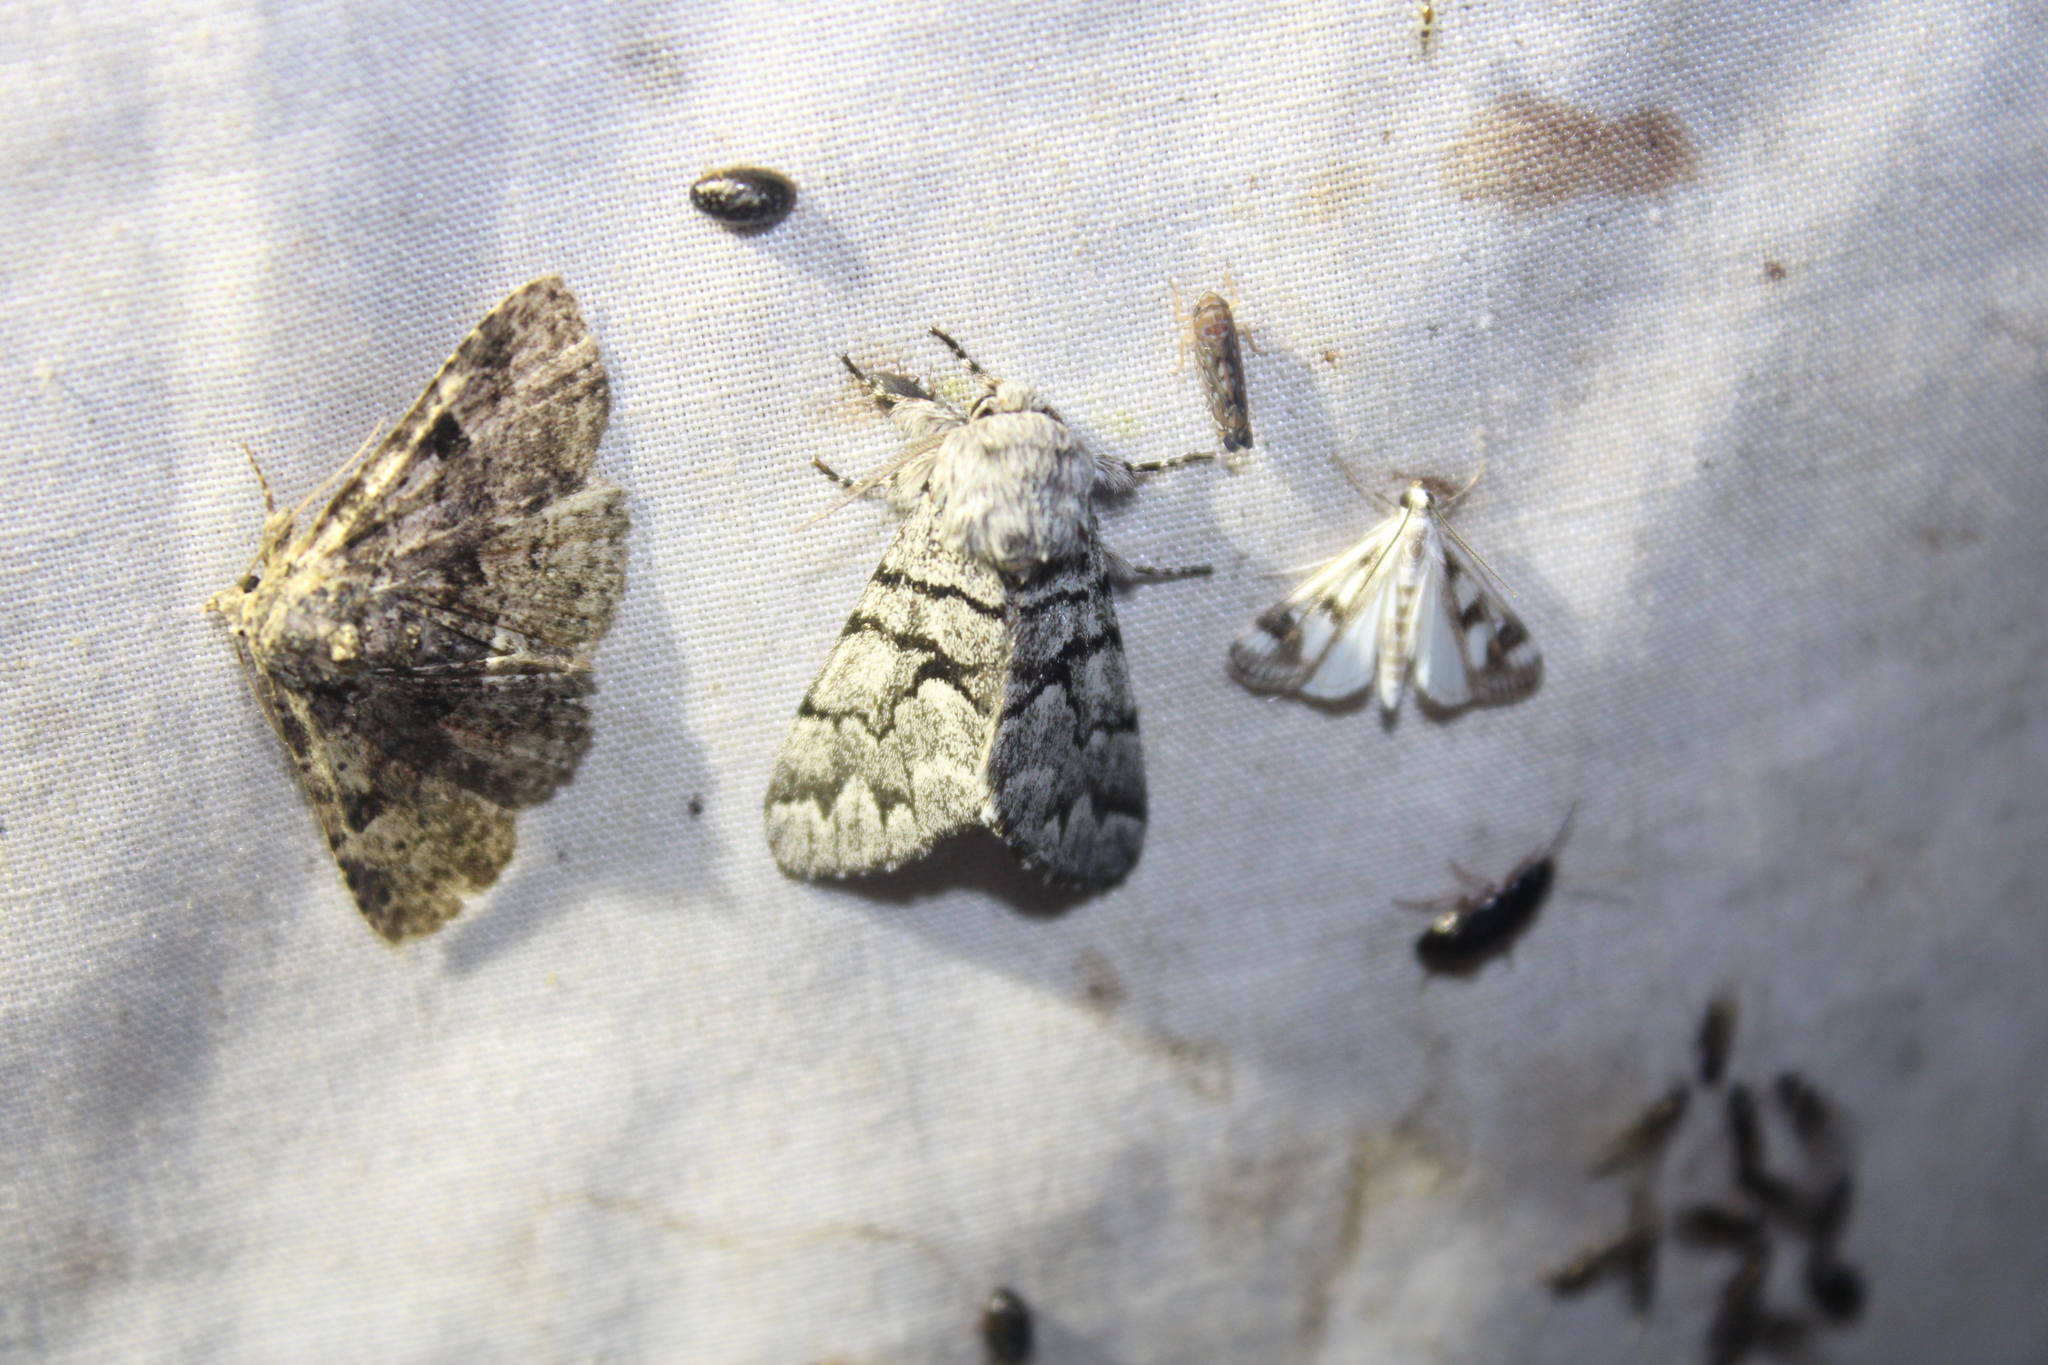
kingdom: Animalia
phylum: Arthropoda
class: Insecta
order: Lepidoptera
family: Noctuidae
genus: Panthea
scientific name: Panthea furcilla
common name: Eastern panthea moth
